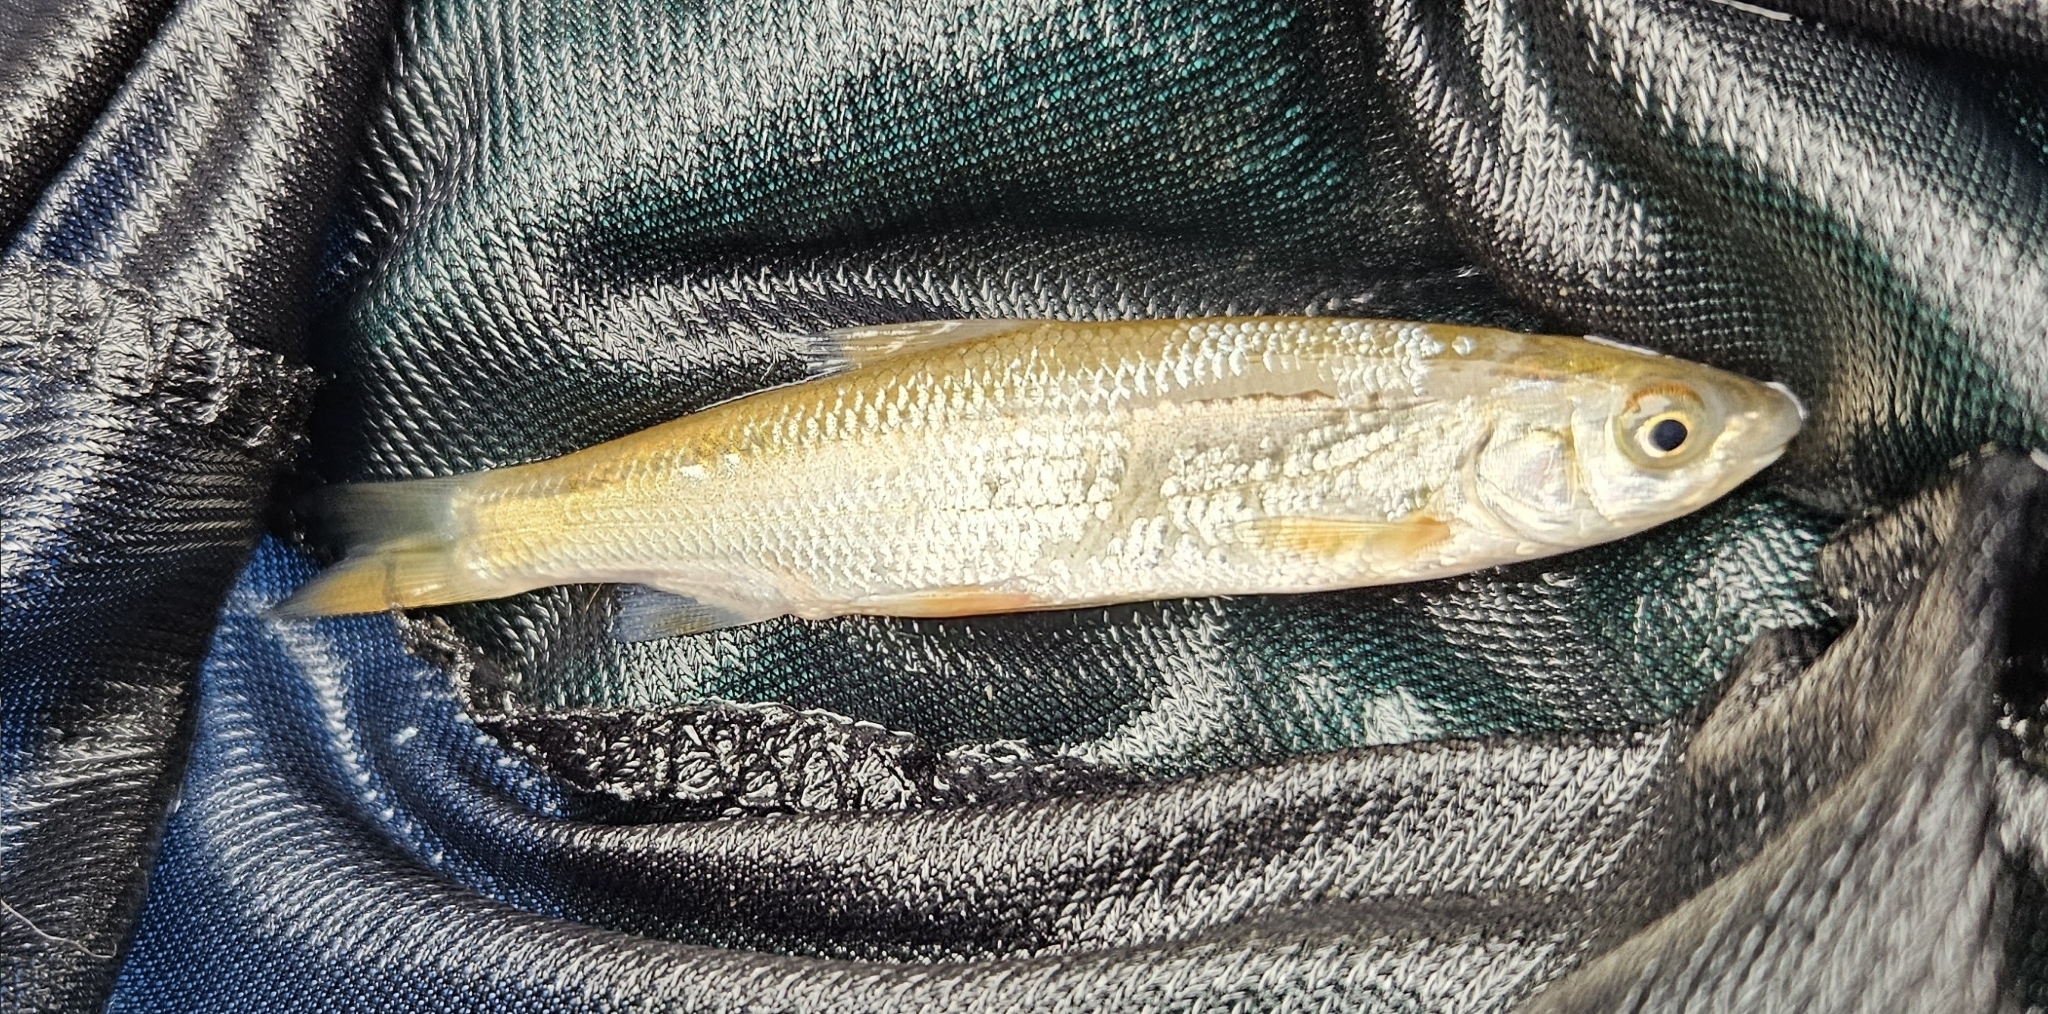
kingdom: Animalia
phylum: Chordata
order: Cypriniformes
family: Cyprinidae
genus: Chondrostoma
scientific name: Chondrostoma nasus
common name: Nase
